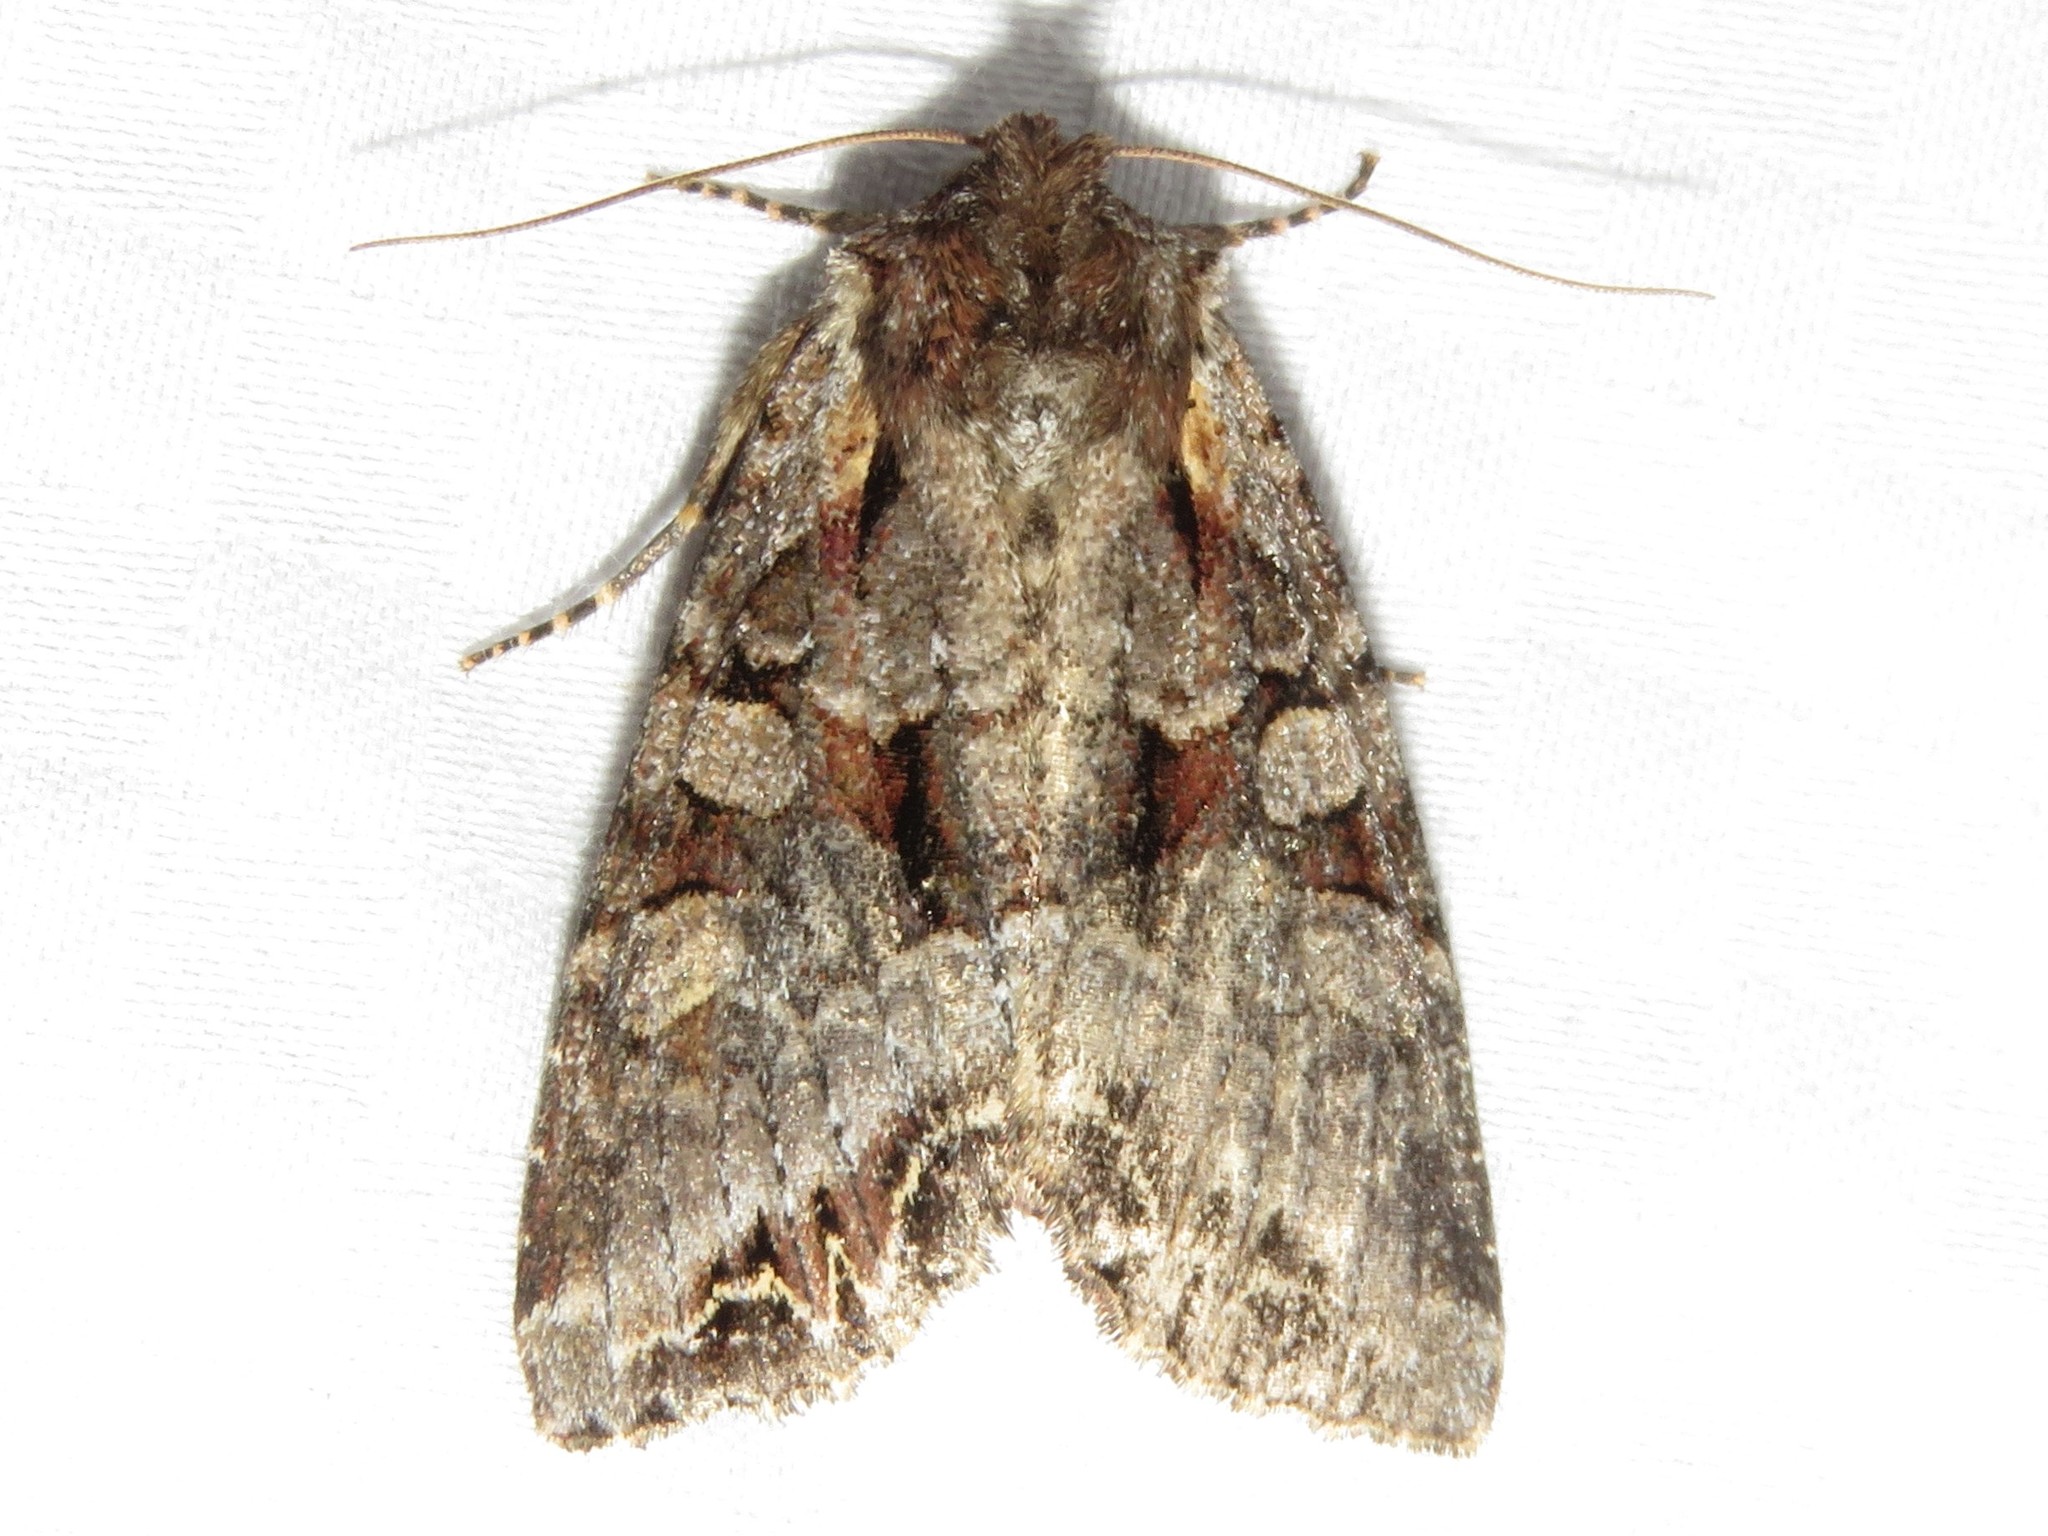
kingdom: Animalia
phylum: Arthropoda
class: Insecta
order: Lepidoptera
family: Noctuidae
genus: Lacanobia
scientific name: Lacanobia grandis
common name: Grand arches moth
